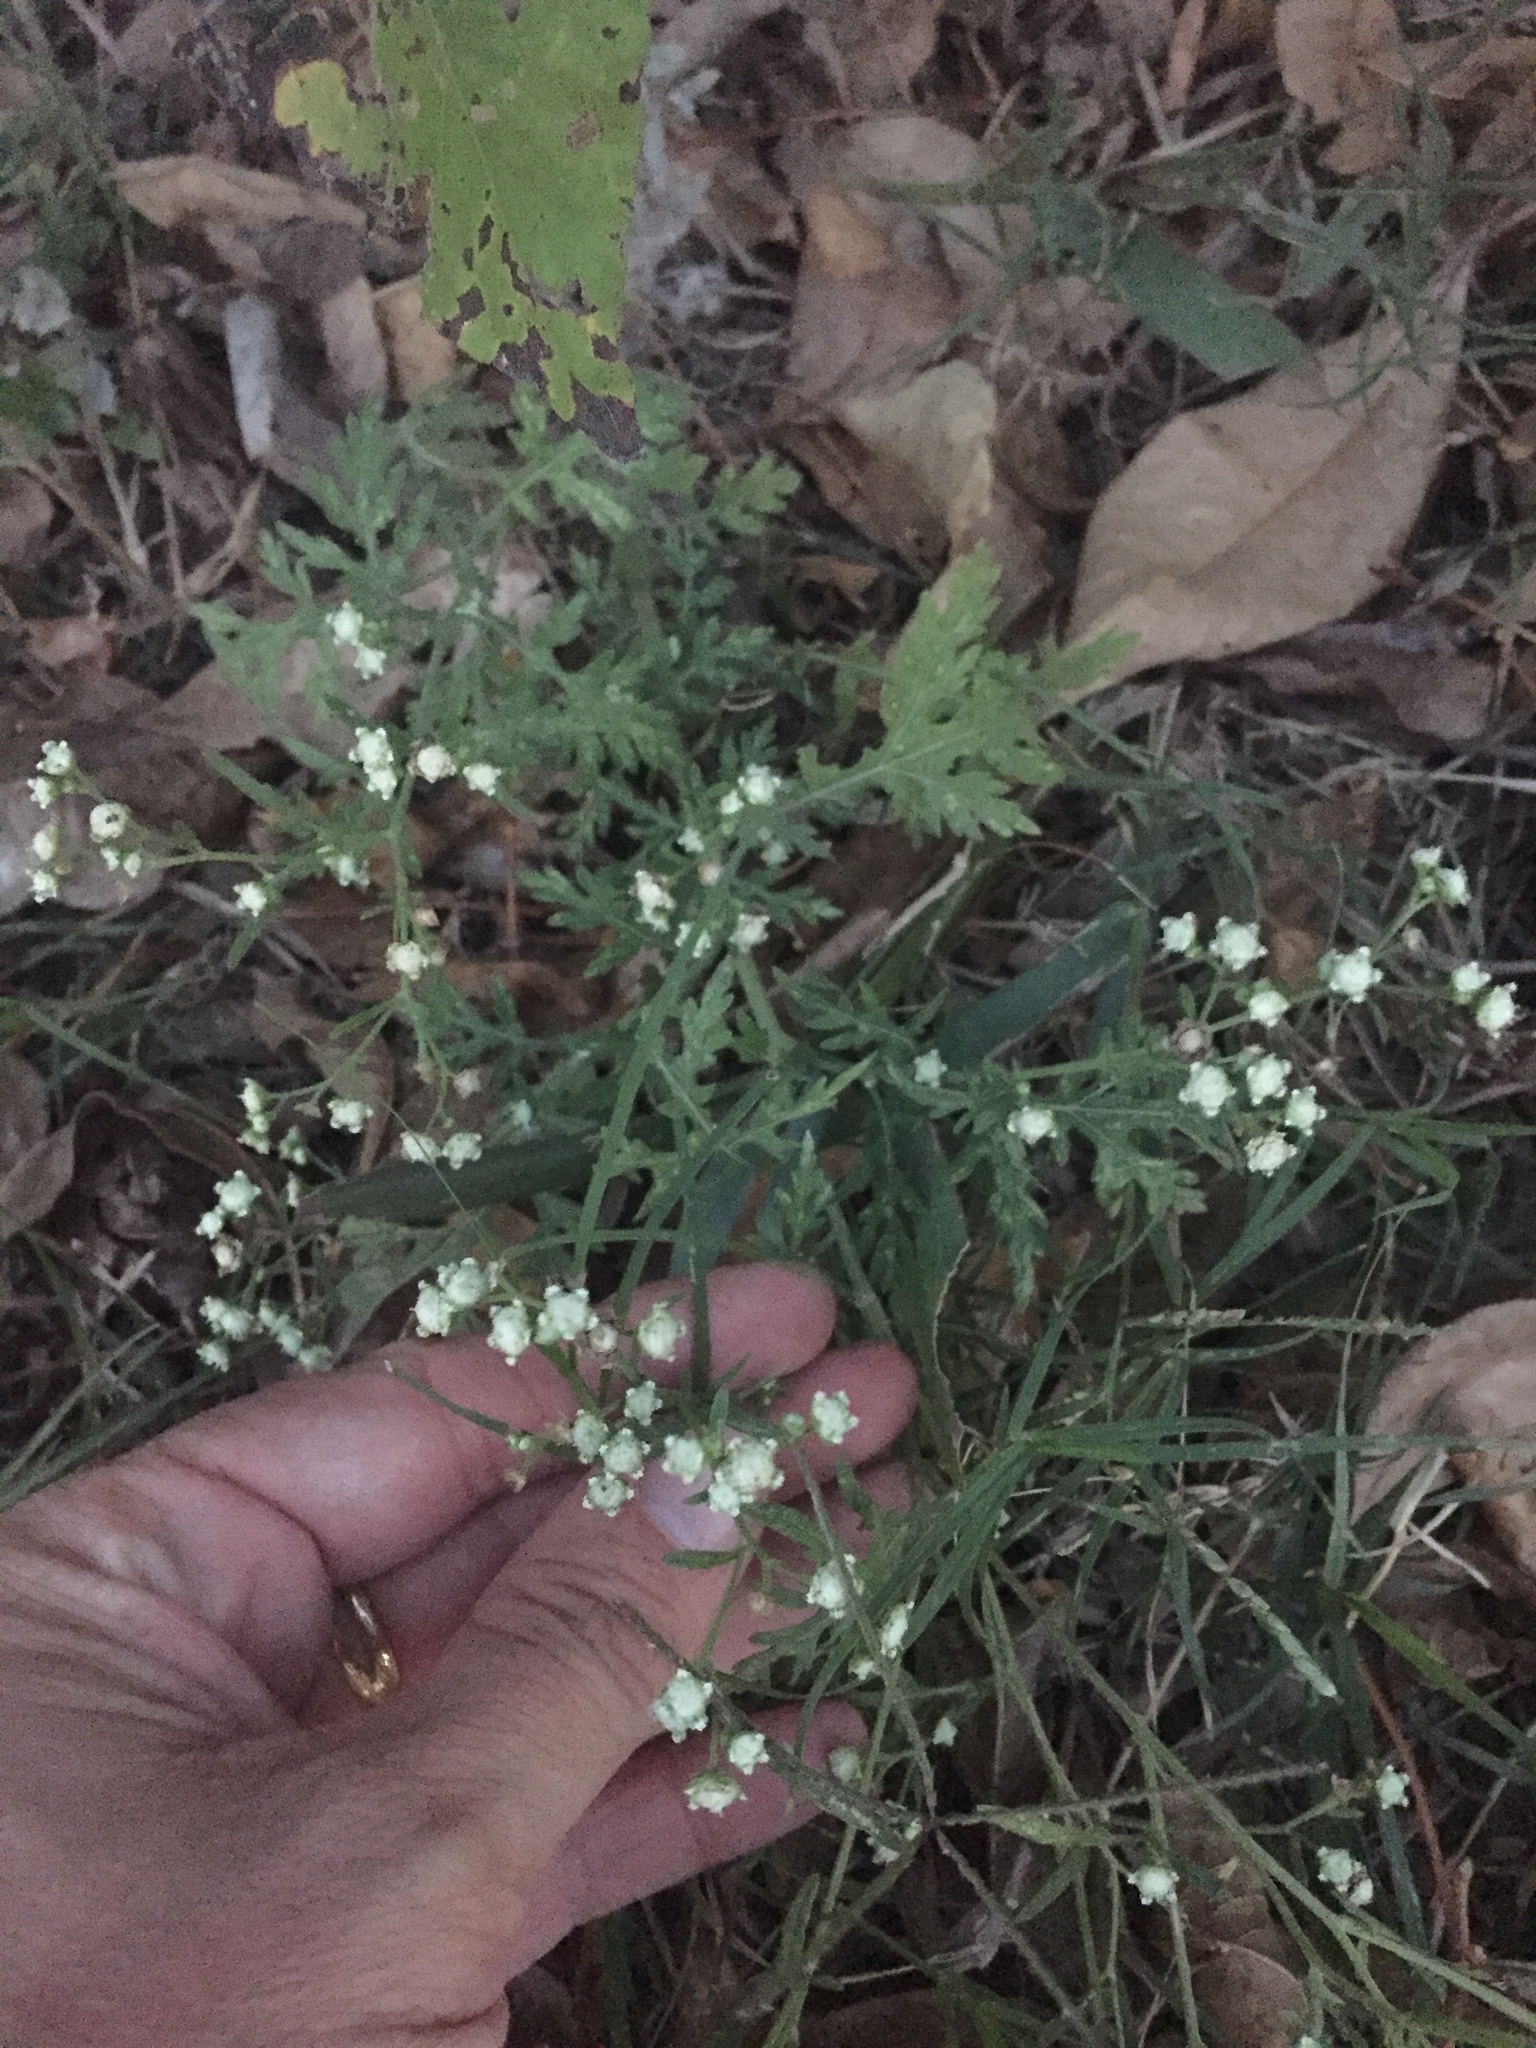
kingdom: Plantae
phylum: Tracheophyta
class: Magnoliopsida
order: Asterales
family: Asteraceae
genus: Parthenium
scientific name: Parthenium hysterophorus
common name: Santa maria feverfew
